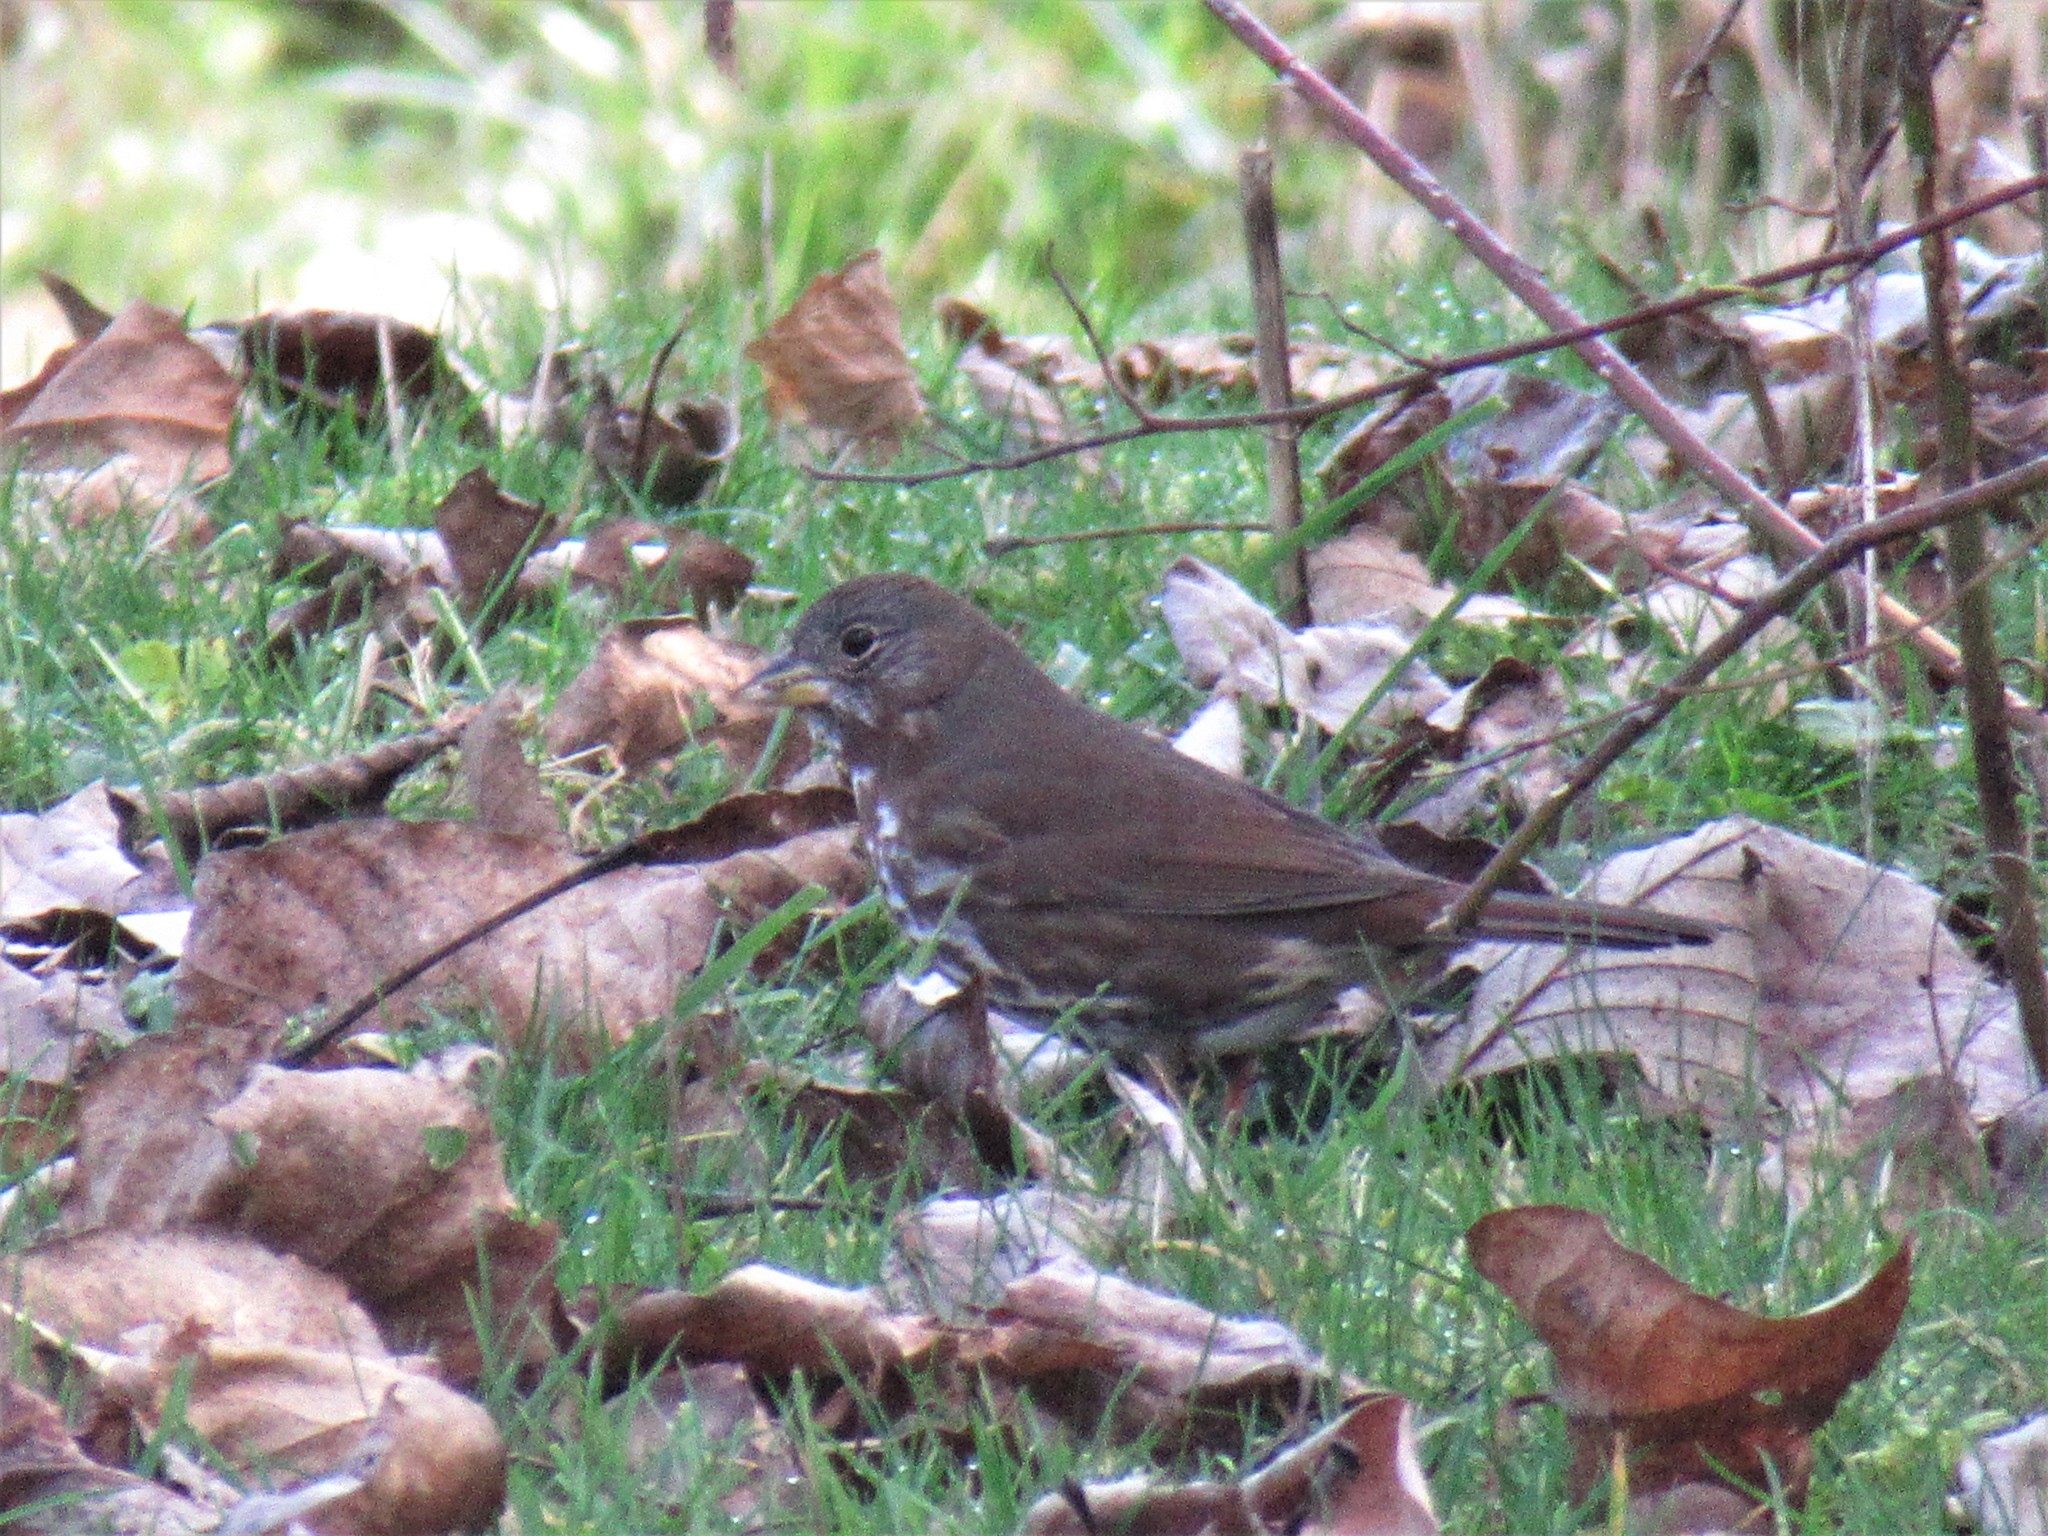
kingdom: Animalia
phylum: Chordata
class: Aves
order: Passeriformes
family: Passerellidae
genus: Passerella
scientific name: Passerella iliaca
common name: Fox sparrow
